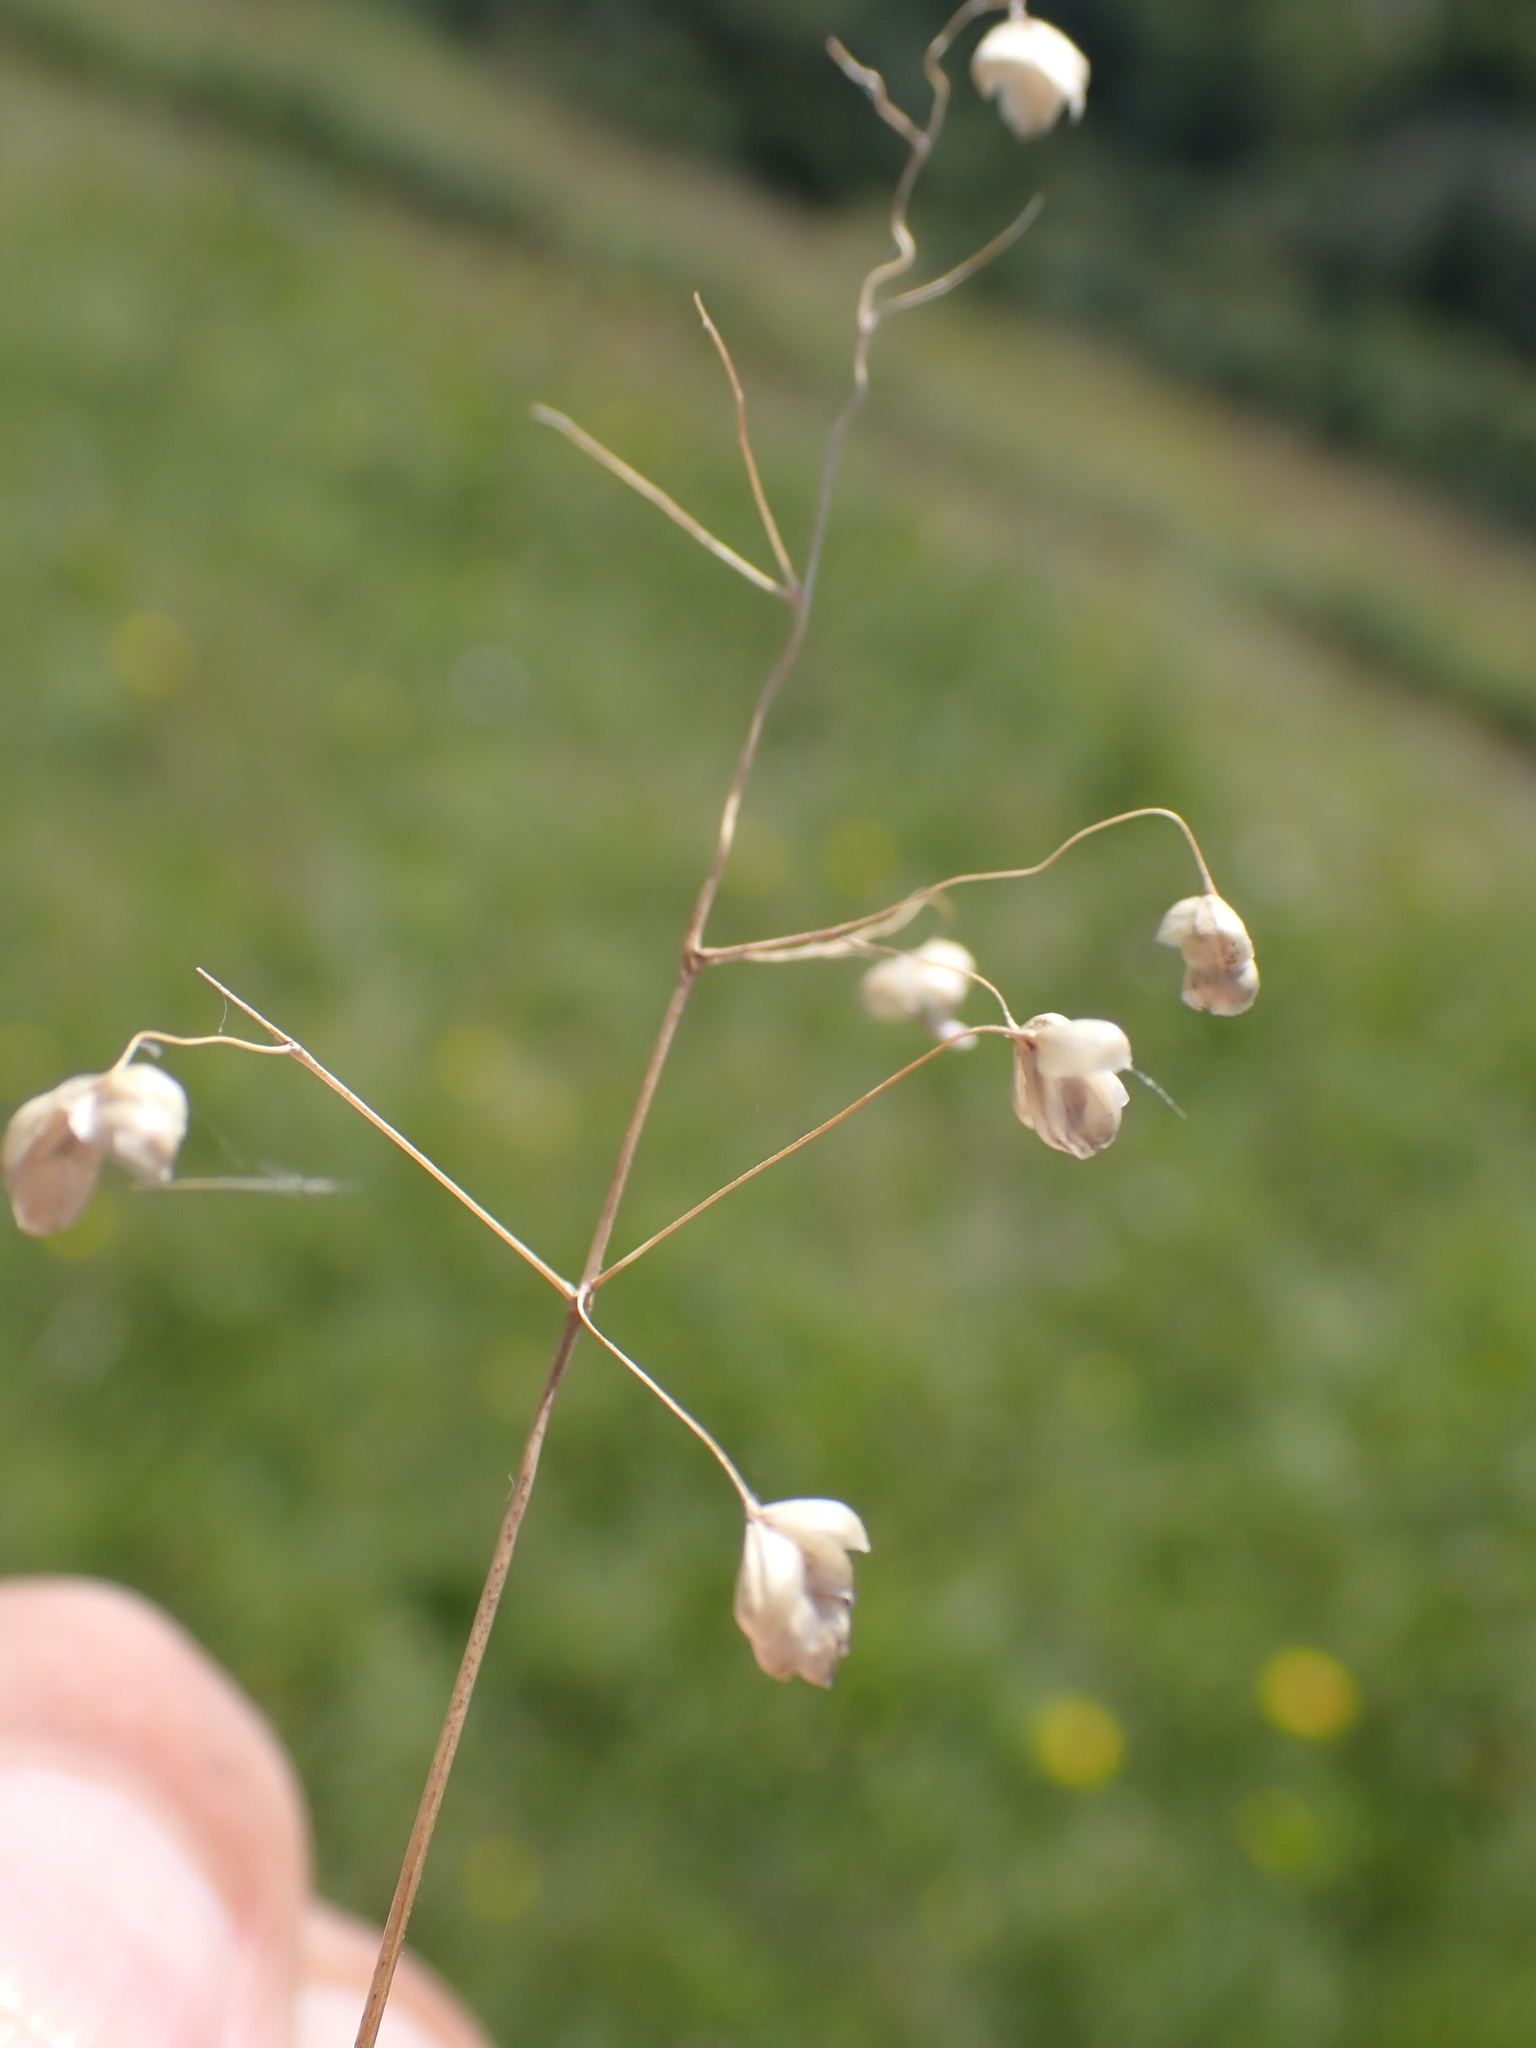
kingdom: Plantae
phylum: Tracheophyta
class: Liliopsida
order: Poales
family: Poaceae
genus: Briza
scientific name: Briza media
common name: Quaking grass
